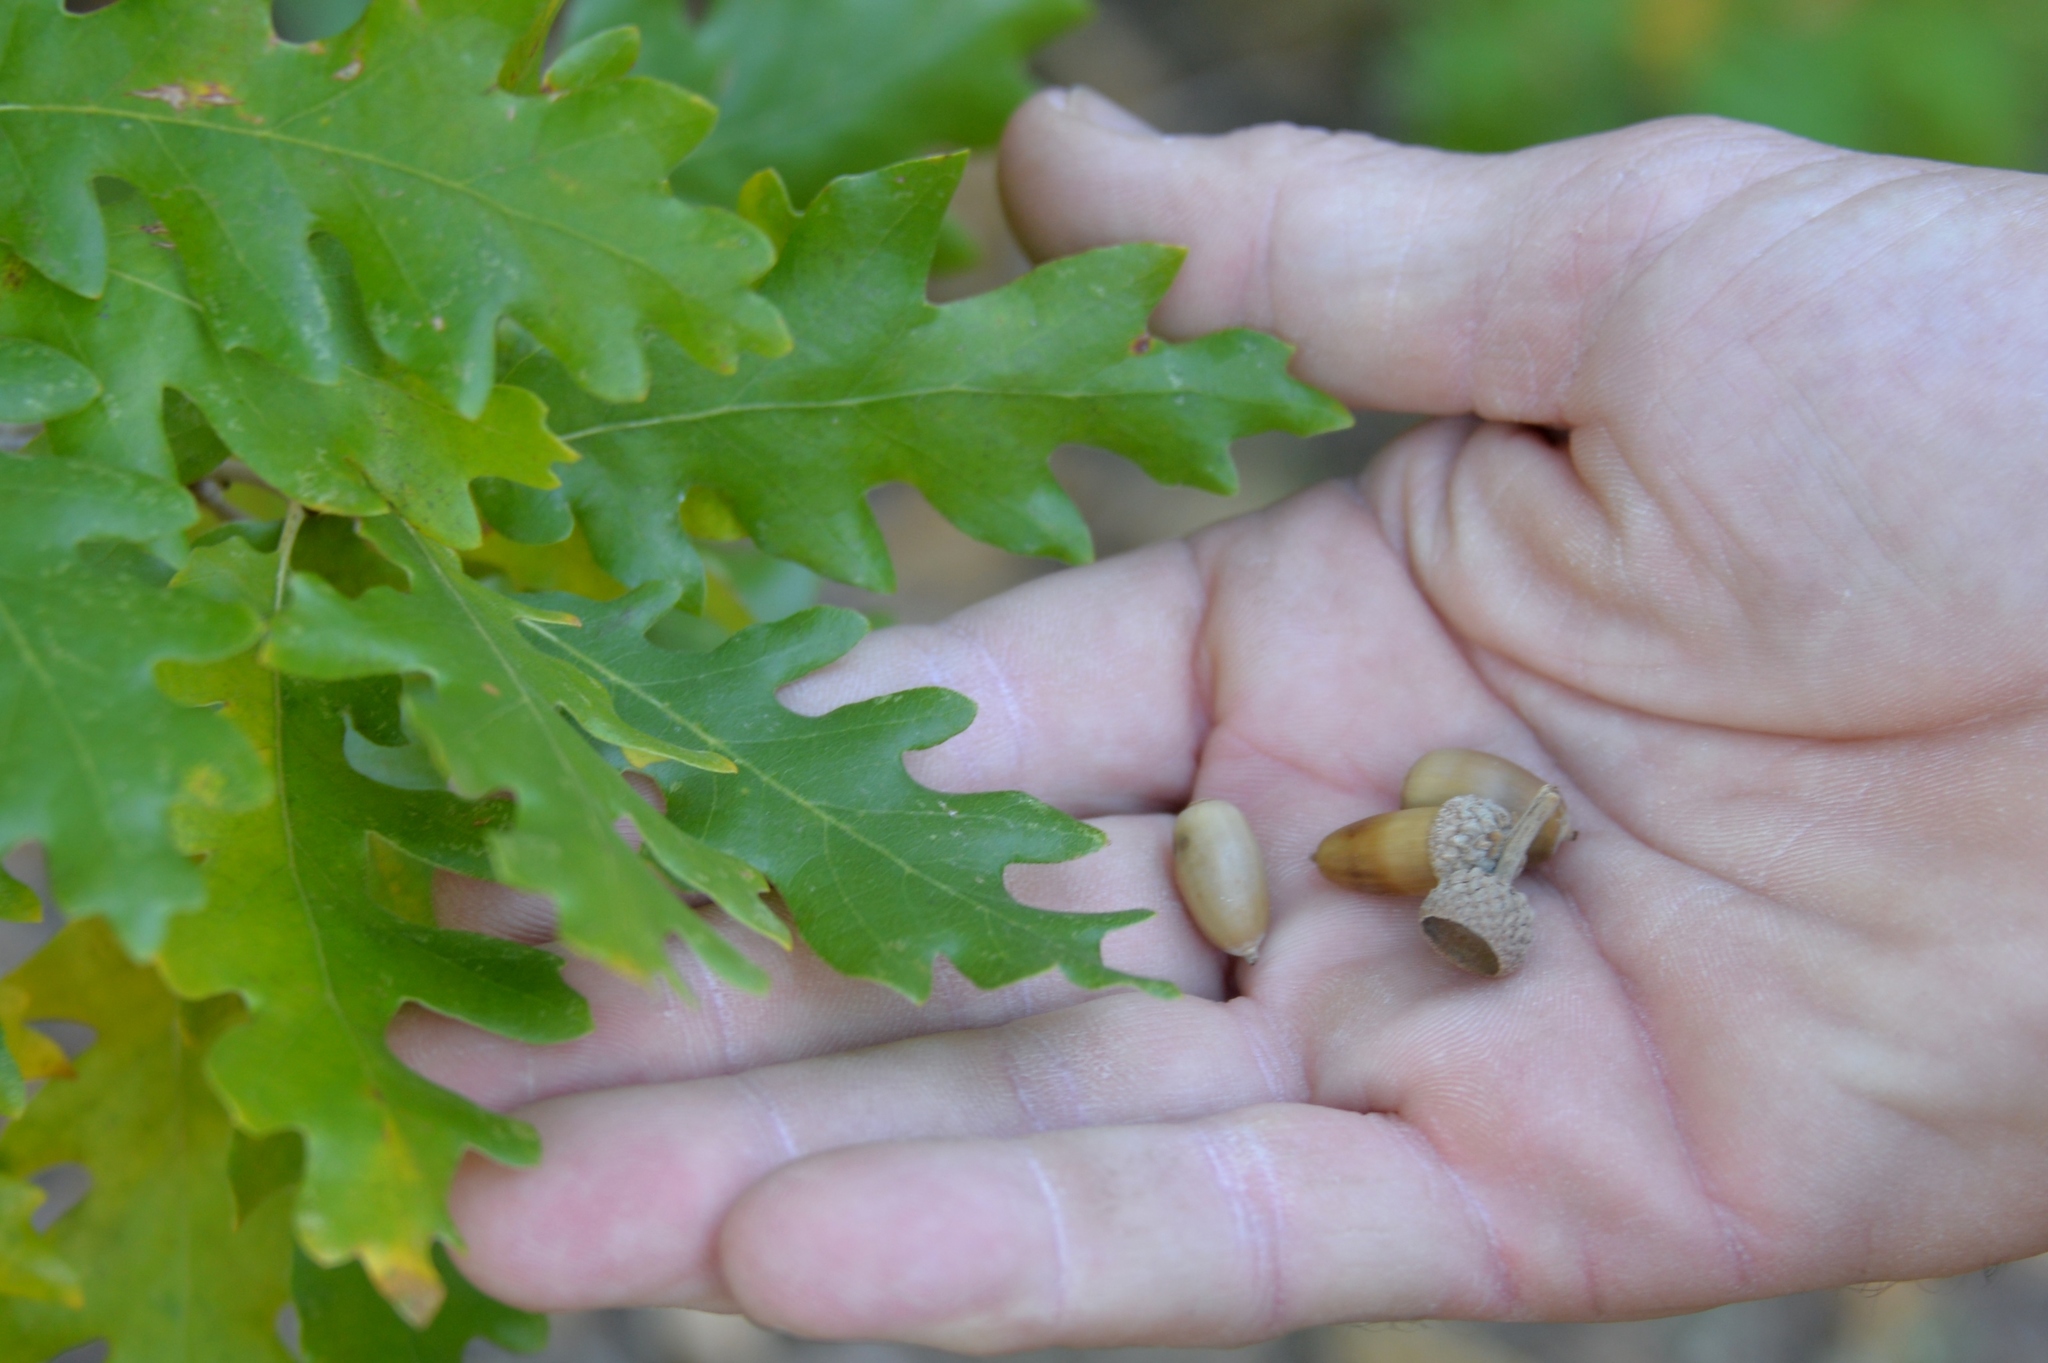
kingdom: Plantae
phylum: Tracheophyta
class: Magnoliopsida
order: Fagales
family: Fagaceae
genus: Quercus
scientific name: Quercus gambelii
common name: Gambel oak
